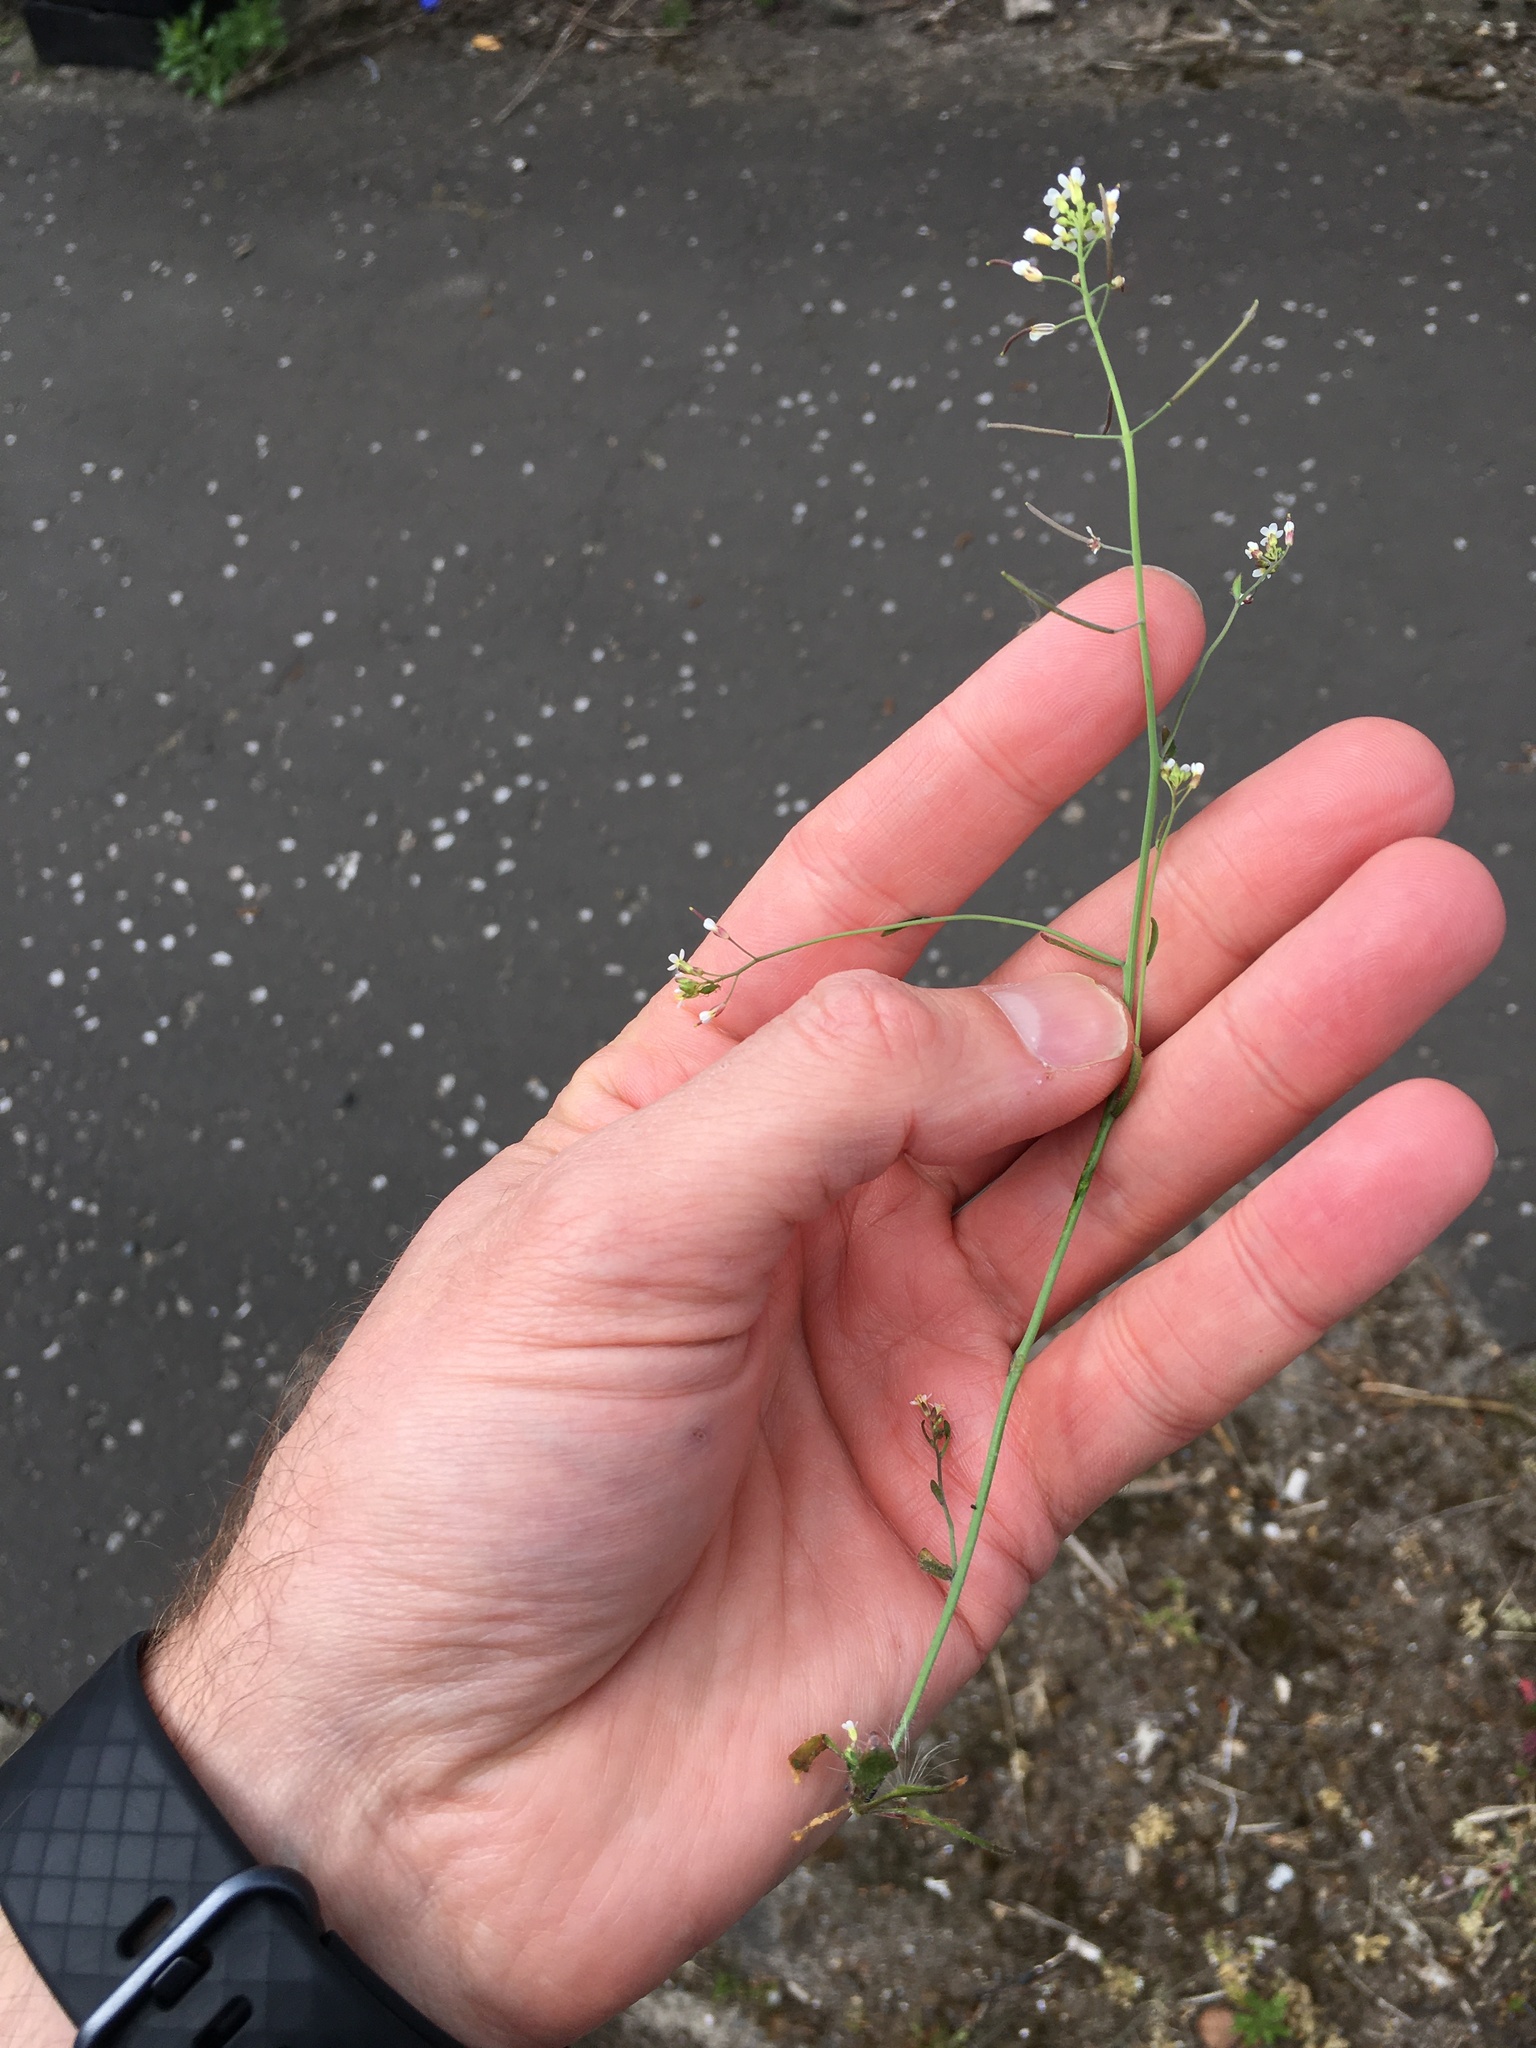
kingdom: Plantae
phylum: Tracheophyta
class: Magnoliopsida
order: Brassicales
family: Brassicaceae
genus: Arabidopsis
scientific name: Arabidopsis thaliana
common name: Thale cress
